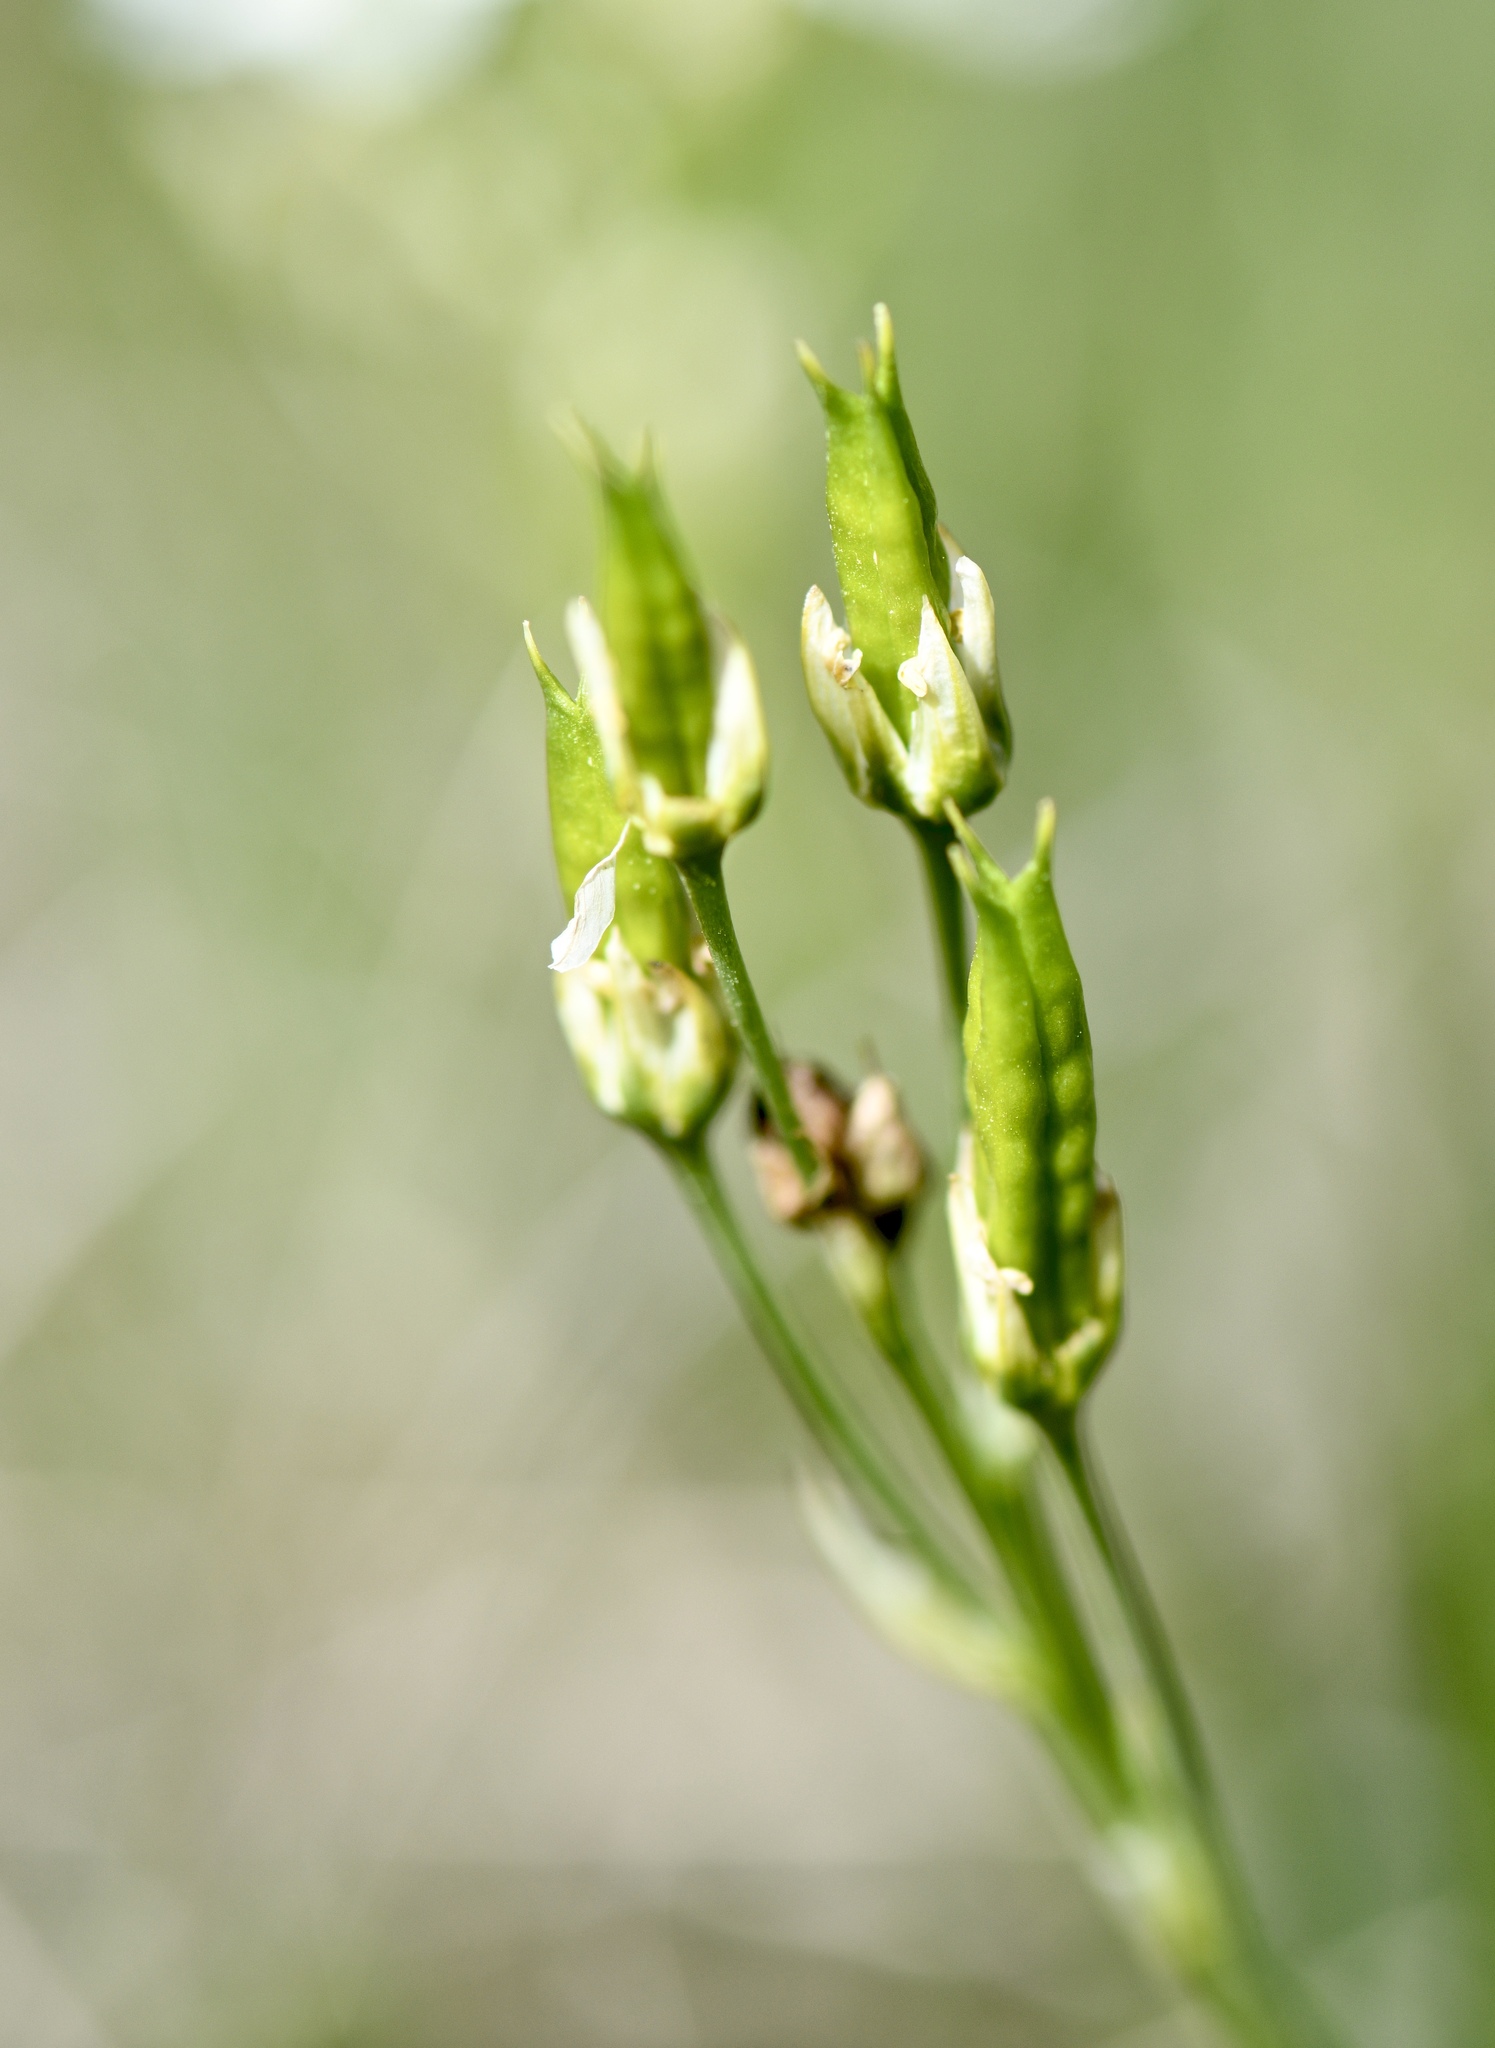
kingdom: Plantae
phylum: Tracheophyta
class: Liliopsida
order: Liliales
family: Melanthiaceae
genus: Toxicoscordion
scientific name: Toxicoscordion fremontii
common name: Fremont's death camas
